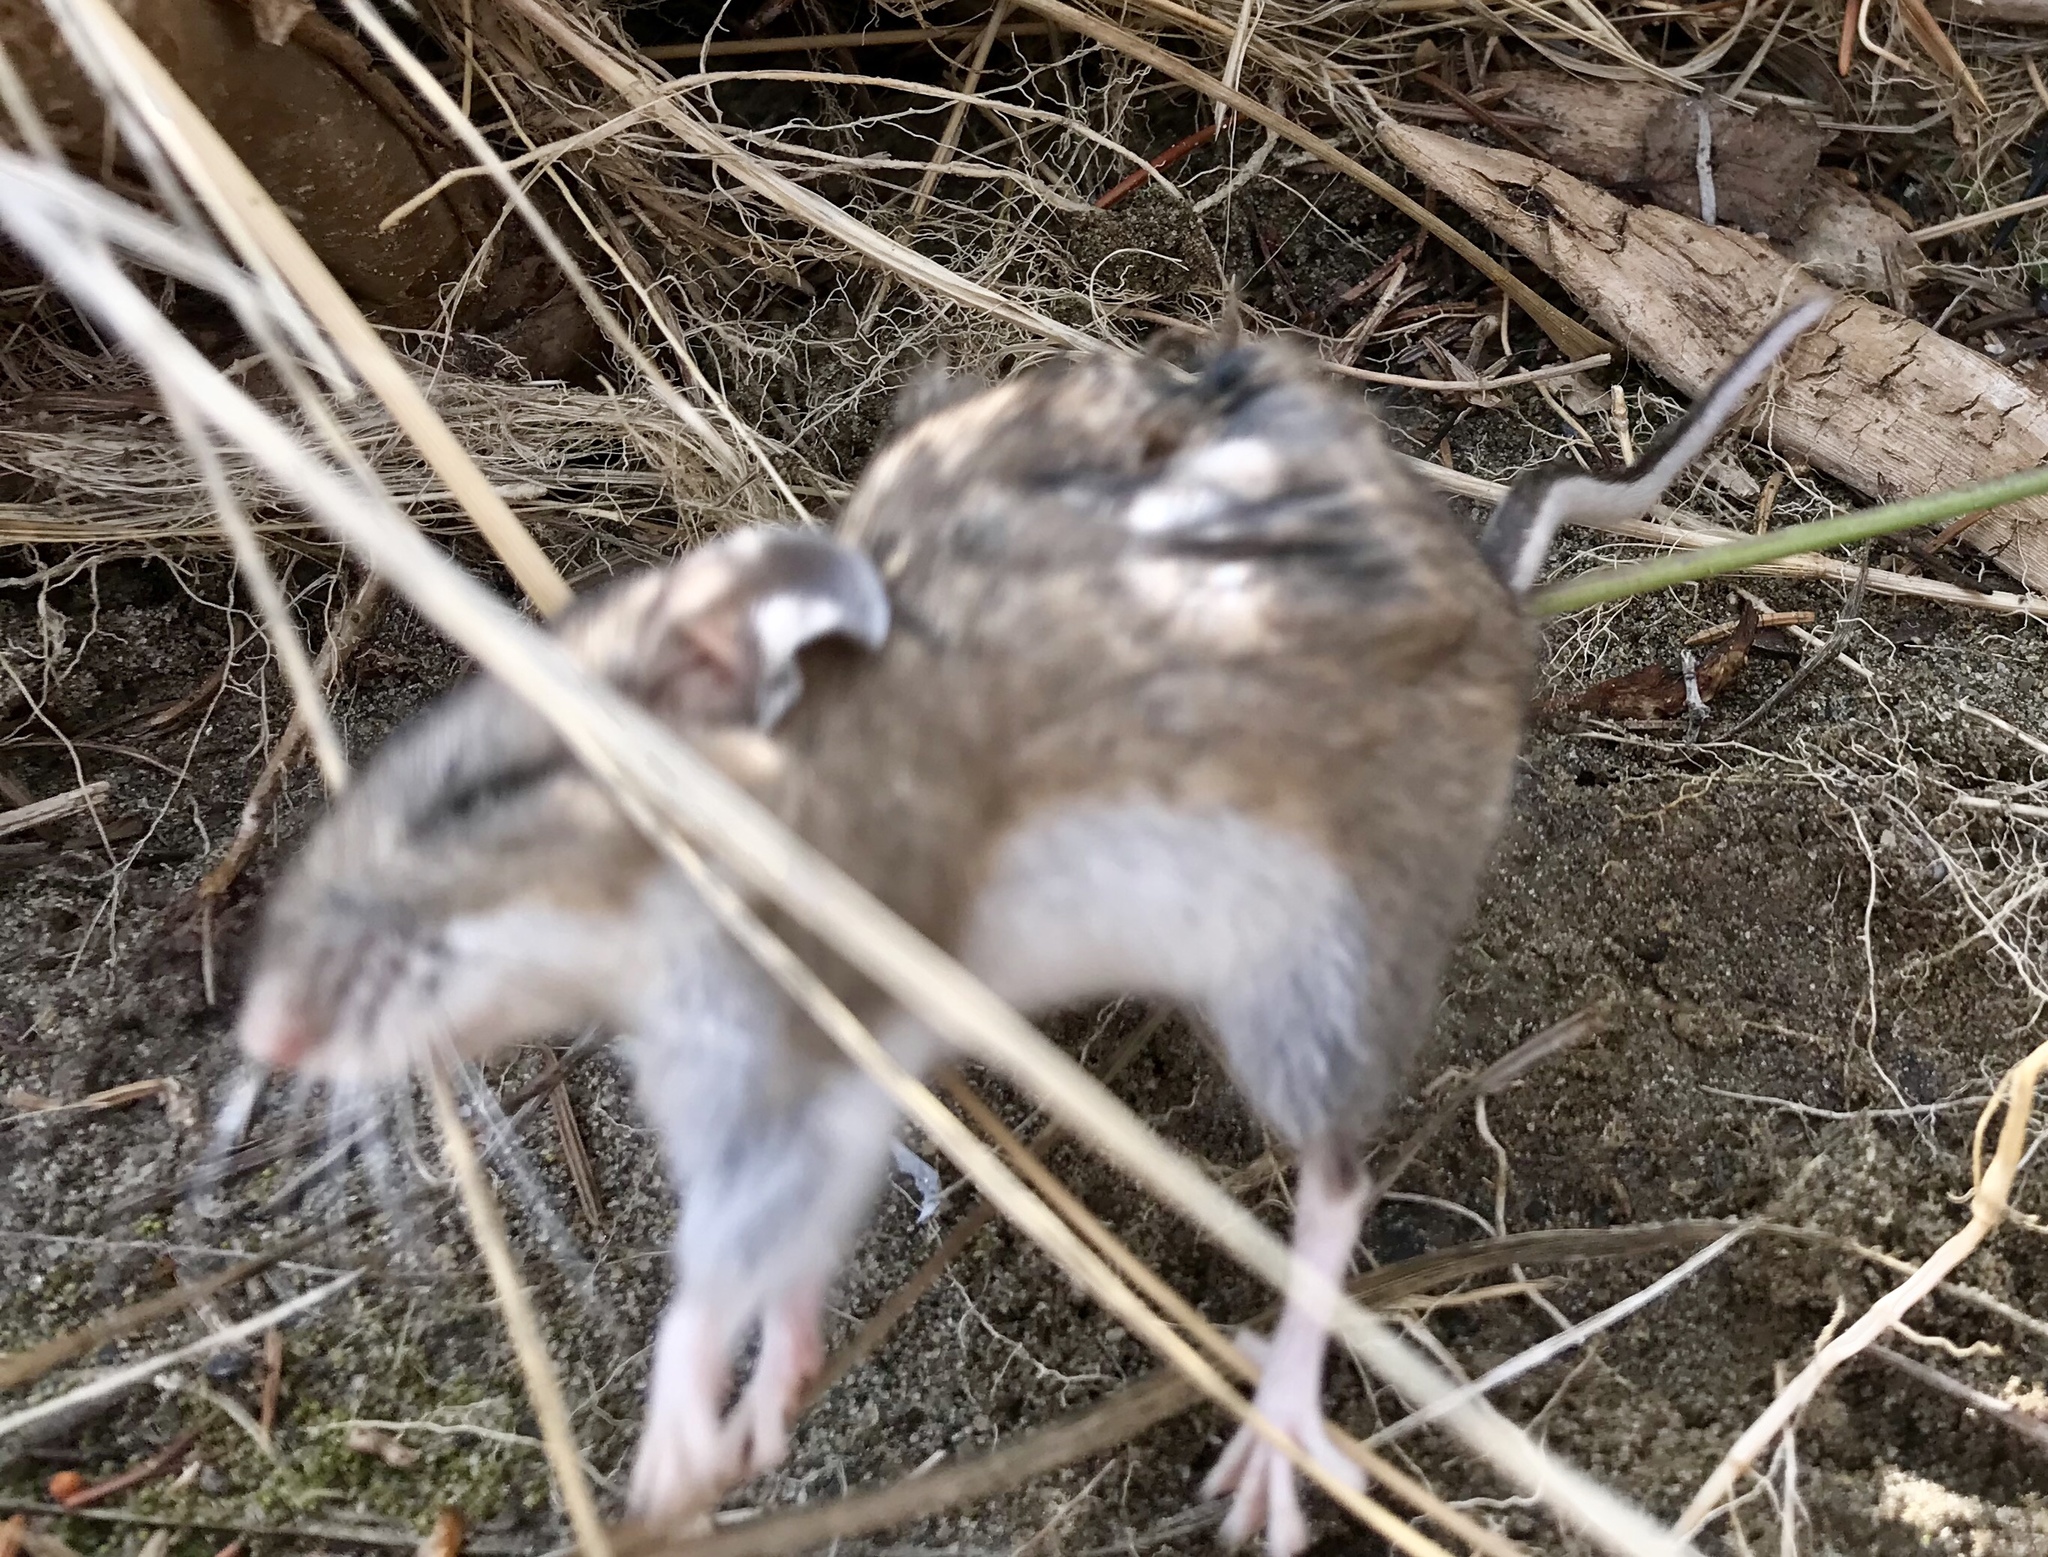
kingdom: Animalia
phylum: Chordata
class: Mammalia
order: Rodentia
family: Cricetidae
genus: Peromyscus
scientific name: Peromyscus maniculatus
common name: Deer mouse
